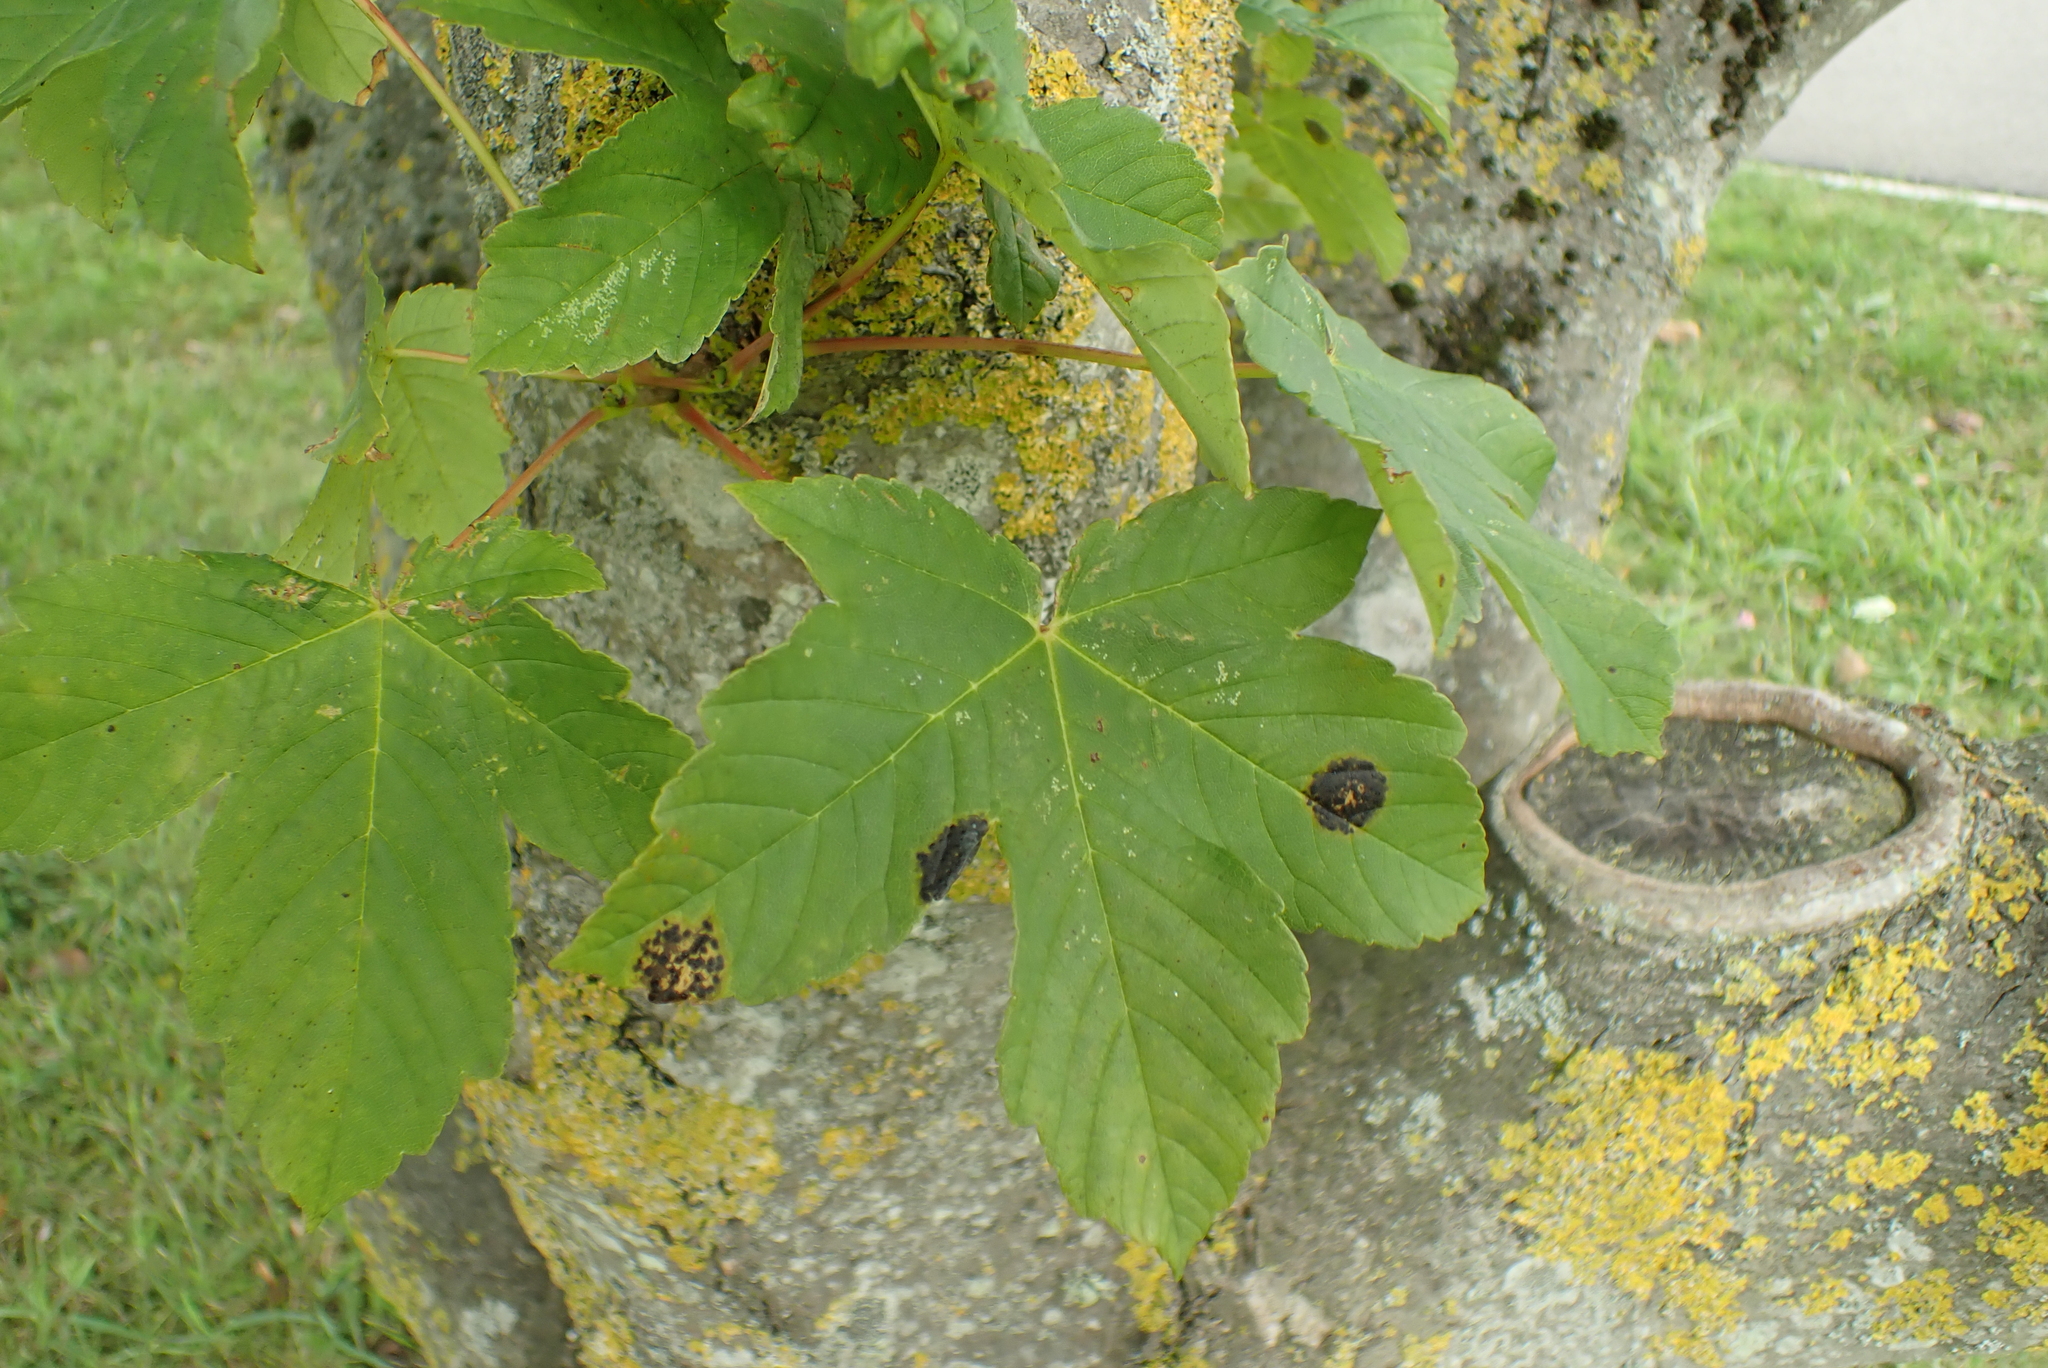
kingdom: Fungi
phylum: Ascomycota
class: Leotiomycetes
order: Rhytismatales
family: Rhytismataceae
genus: Rhytisma
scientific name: Rhytisma acerinum
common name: European tar spot
